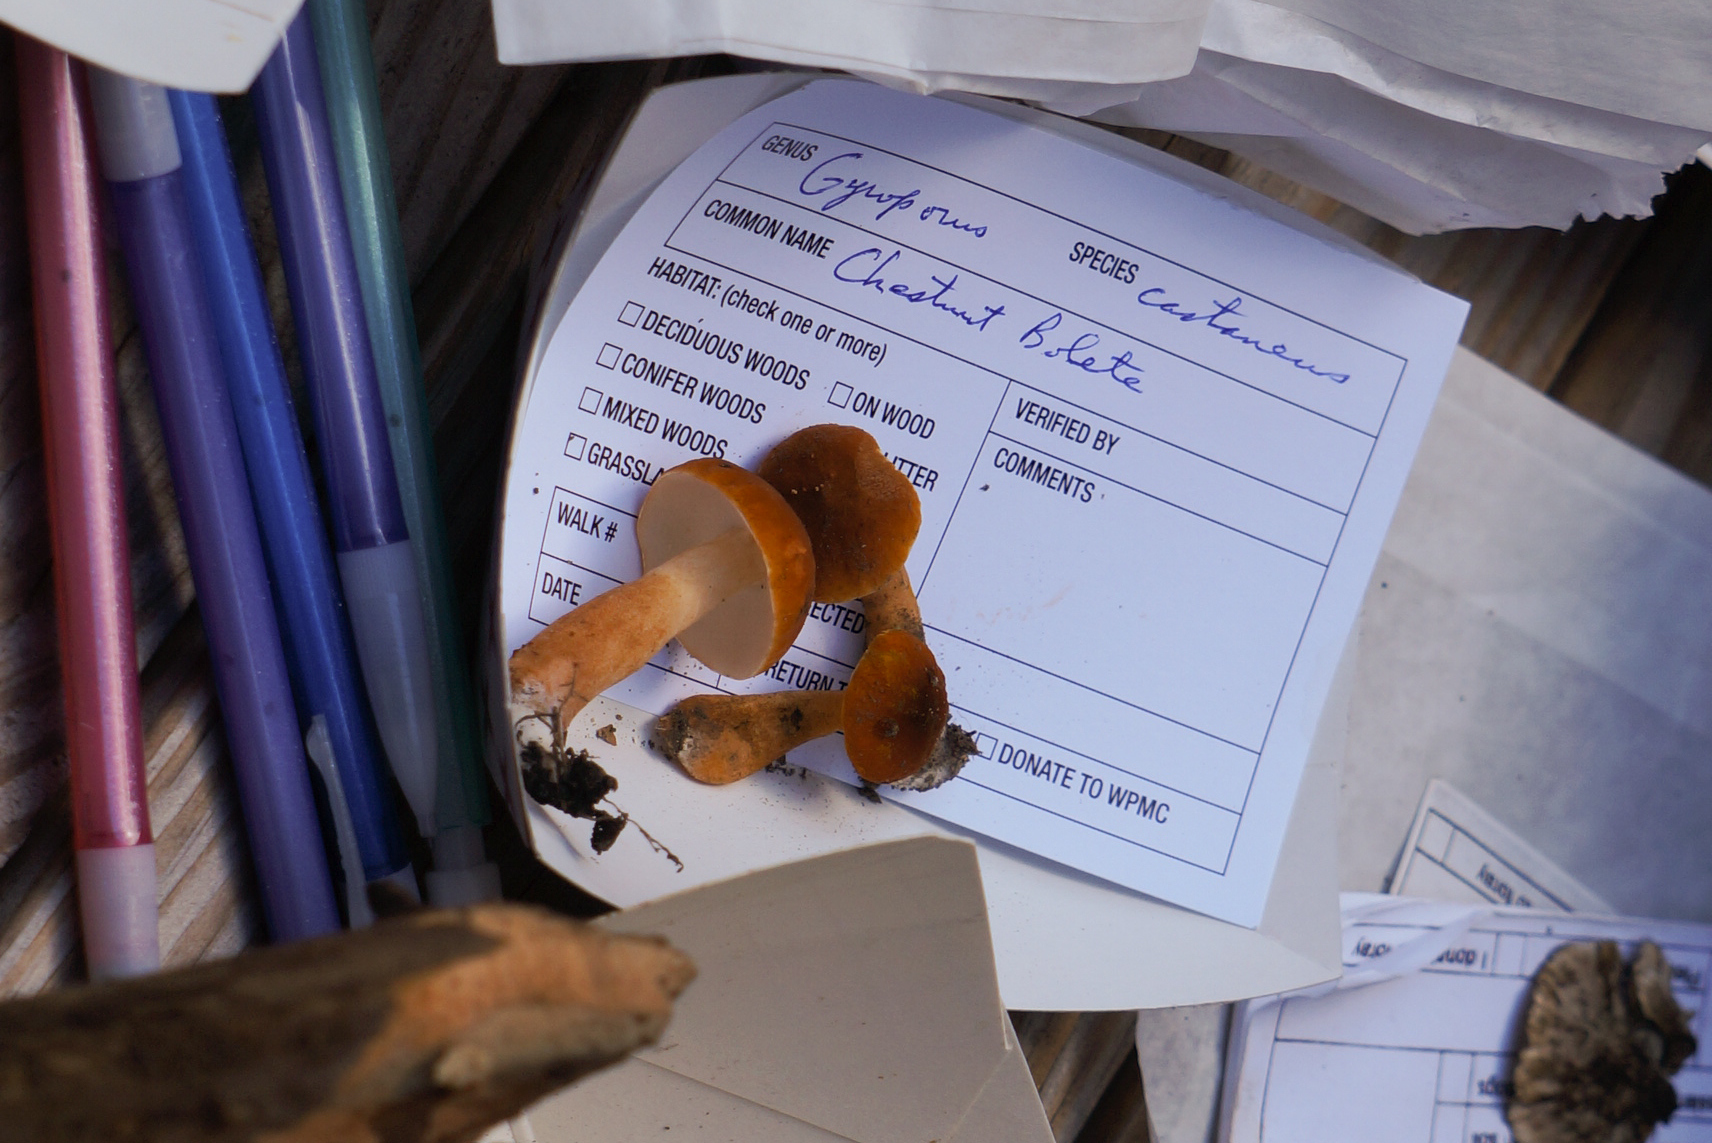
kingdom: Fungi
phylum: Basidiomycota
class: Agaricomycetes
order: Boletales
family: Gyroporaceae
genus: Gyroporus
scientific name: Gyroporus castaneus
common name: Chestnut bolete
